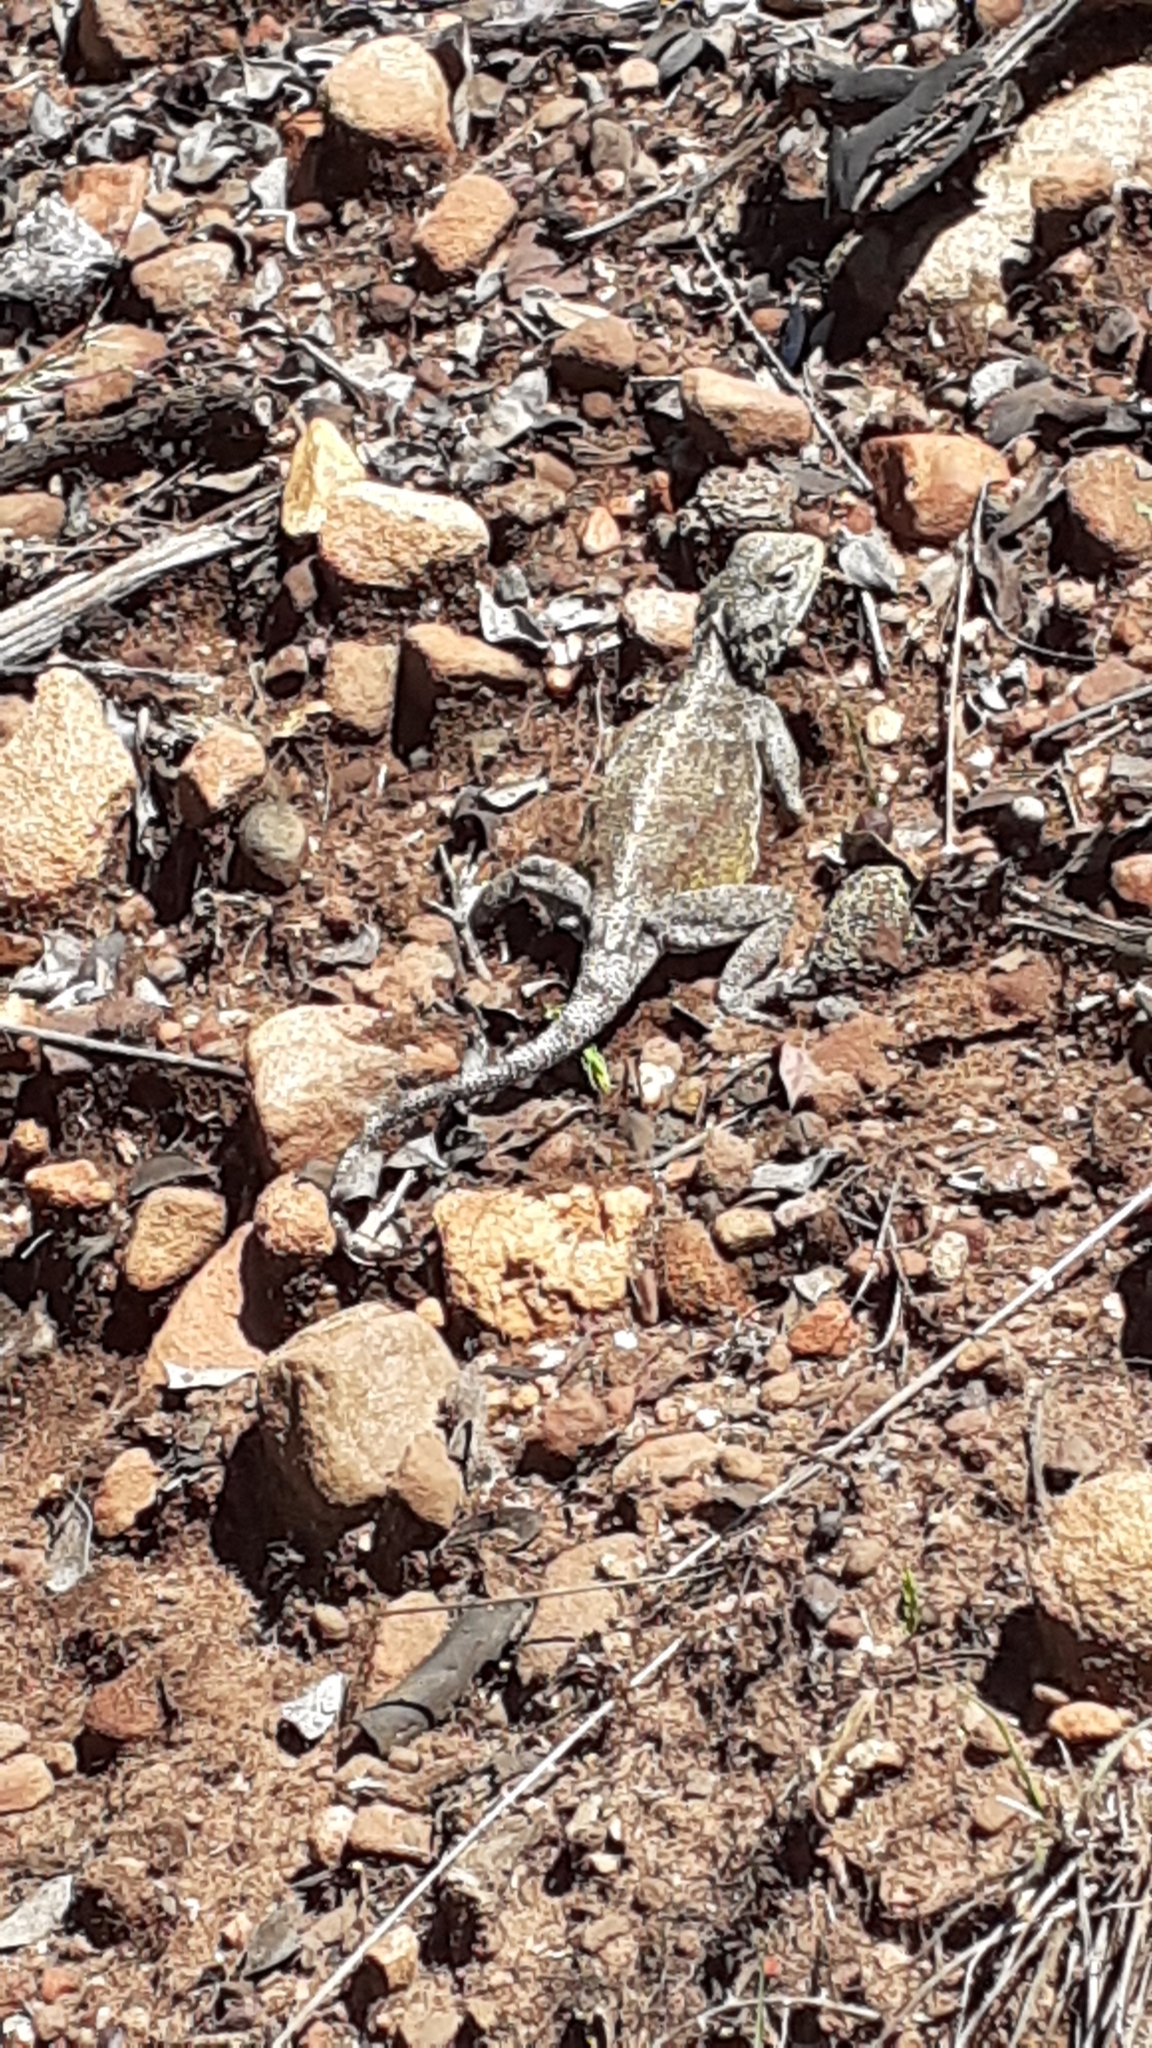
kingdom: Animalia
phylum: Chordata
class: Squamata
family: Agamidae
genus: Agama
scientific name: Agama atra
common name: Southern african rock agama
